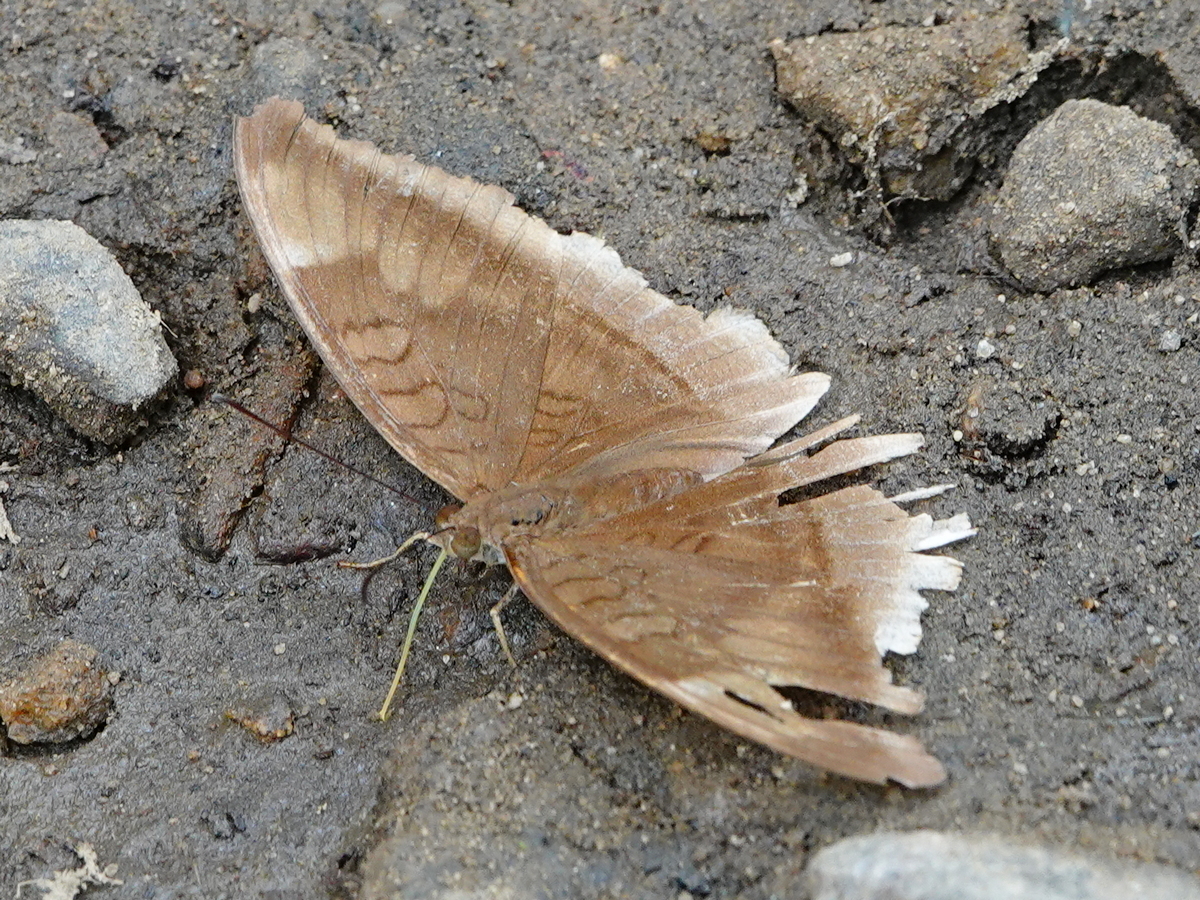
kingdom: Animalia
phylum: Arthropoda
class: Insecta
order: Lepidoptera
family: Nymphalidae
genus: Tanaecia
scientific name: Tanaecia lepidea
